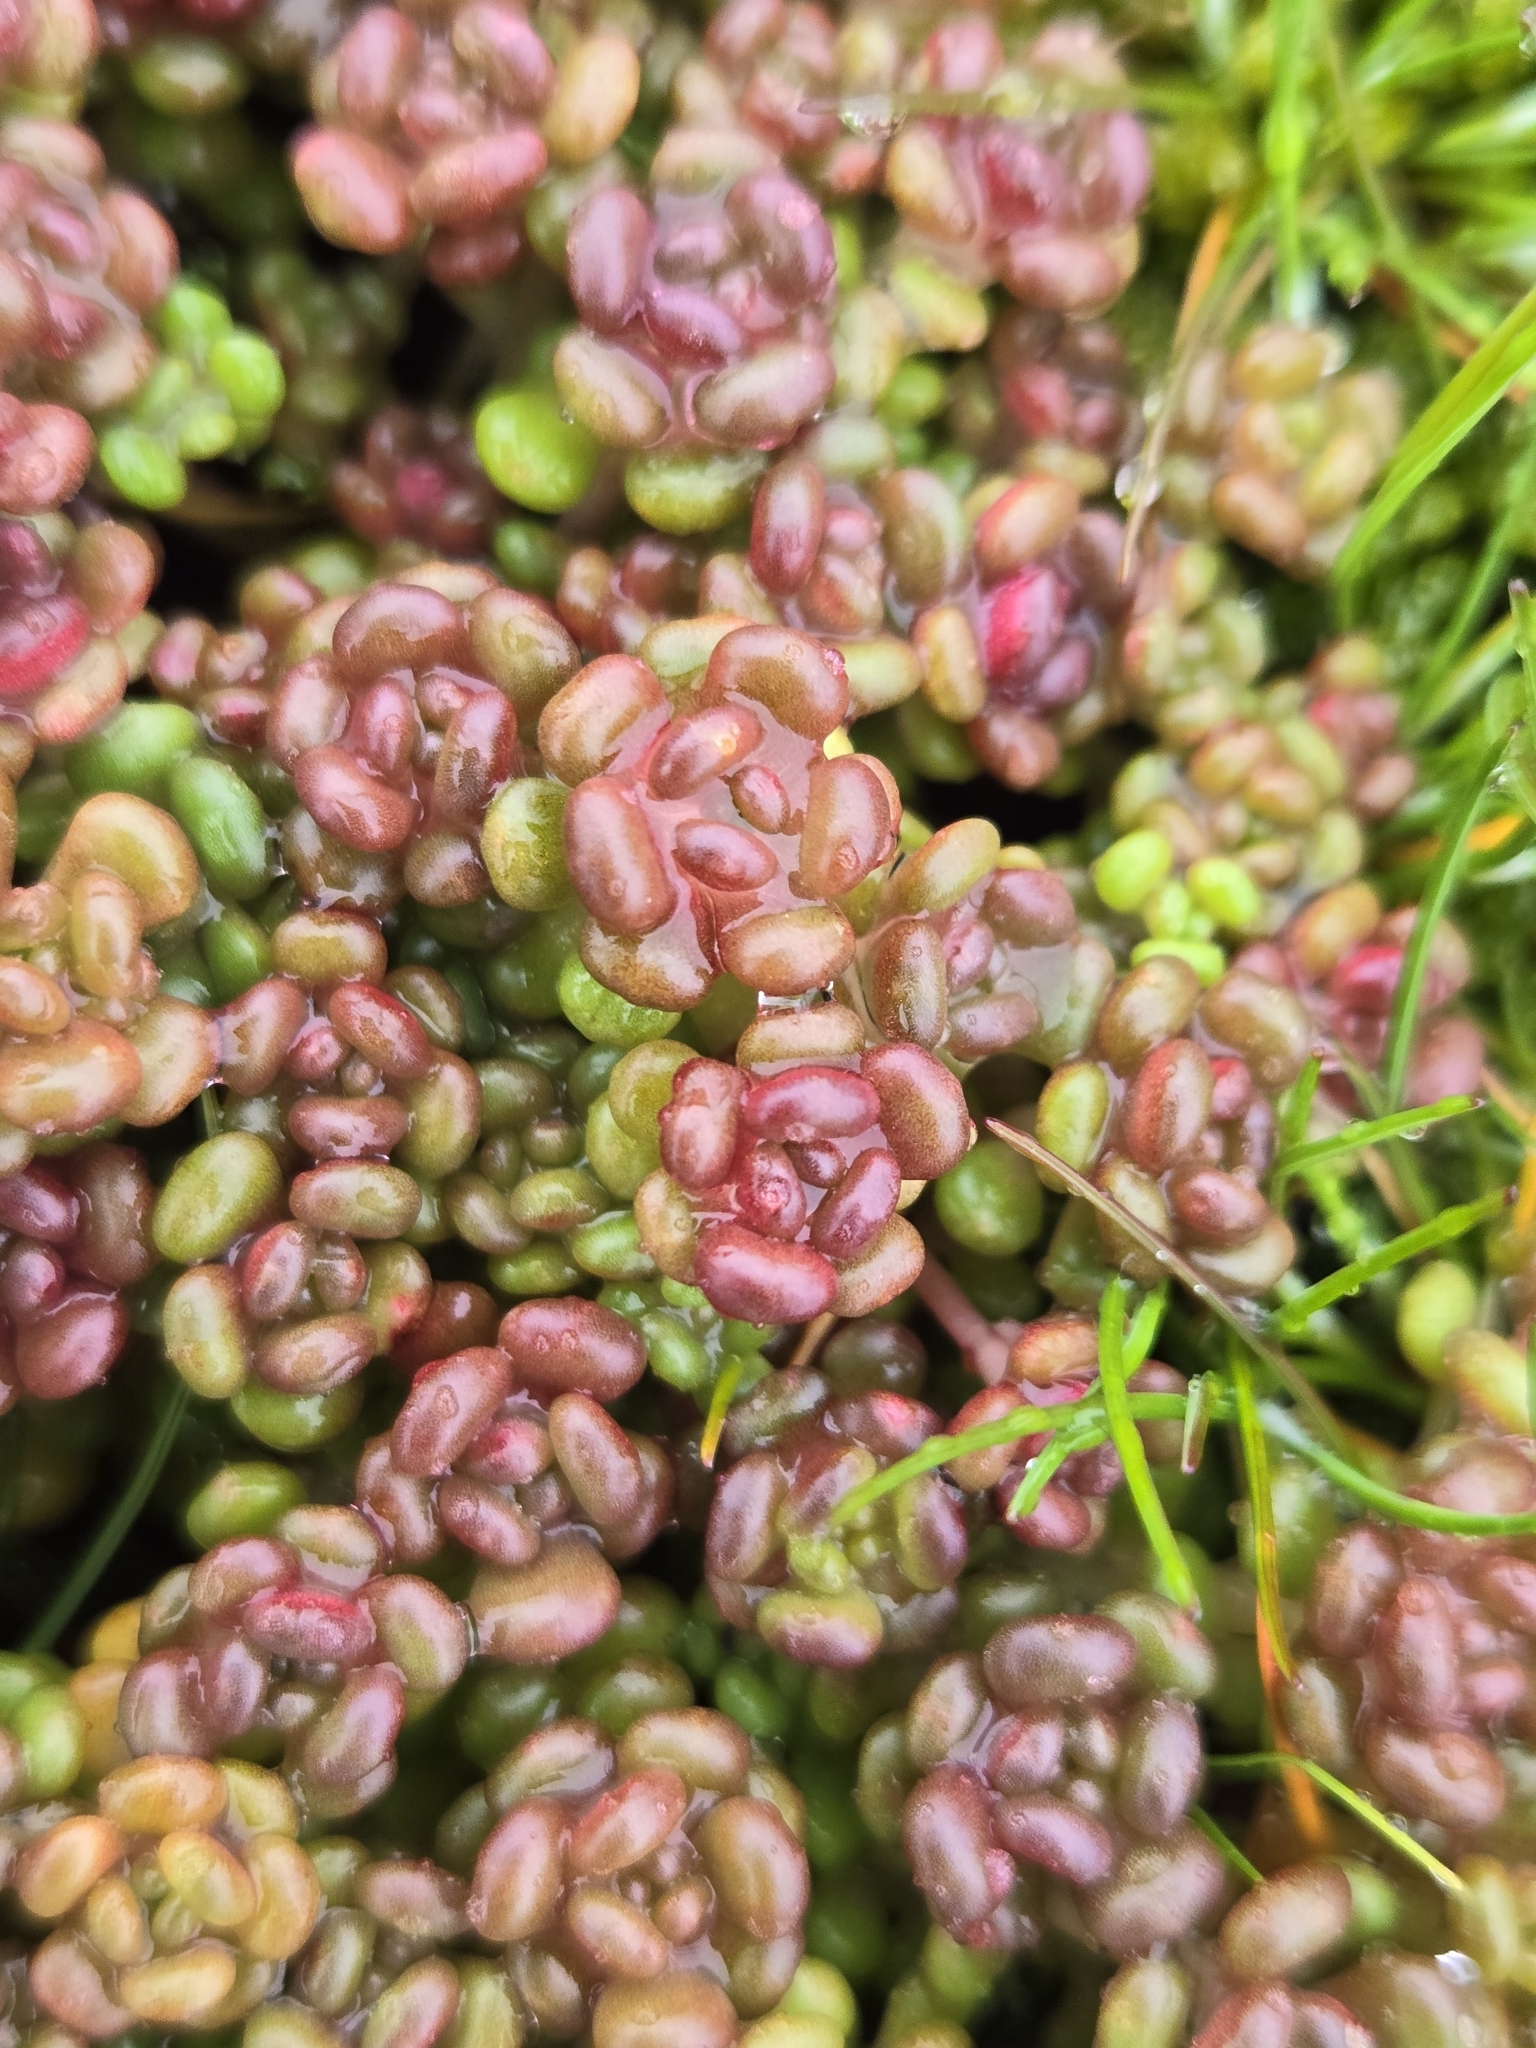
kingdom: Plantae
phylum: Tracheophyta
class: Magnoliopsida
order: Saxifragales
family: Crassulaceae
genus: Sedum
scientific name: Sedum oreganum
